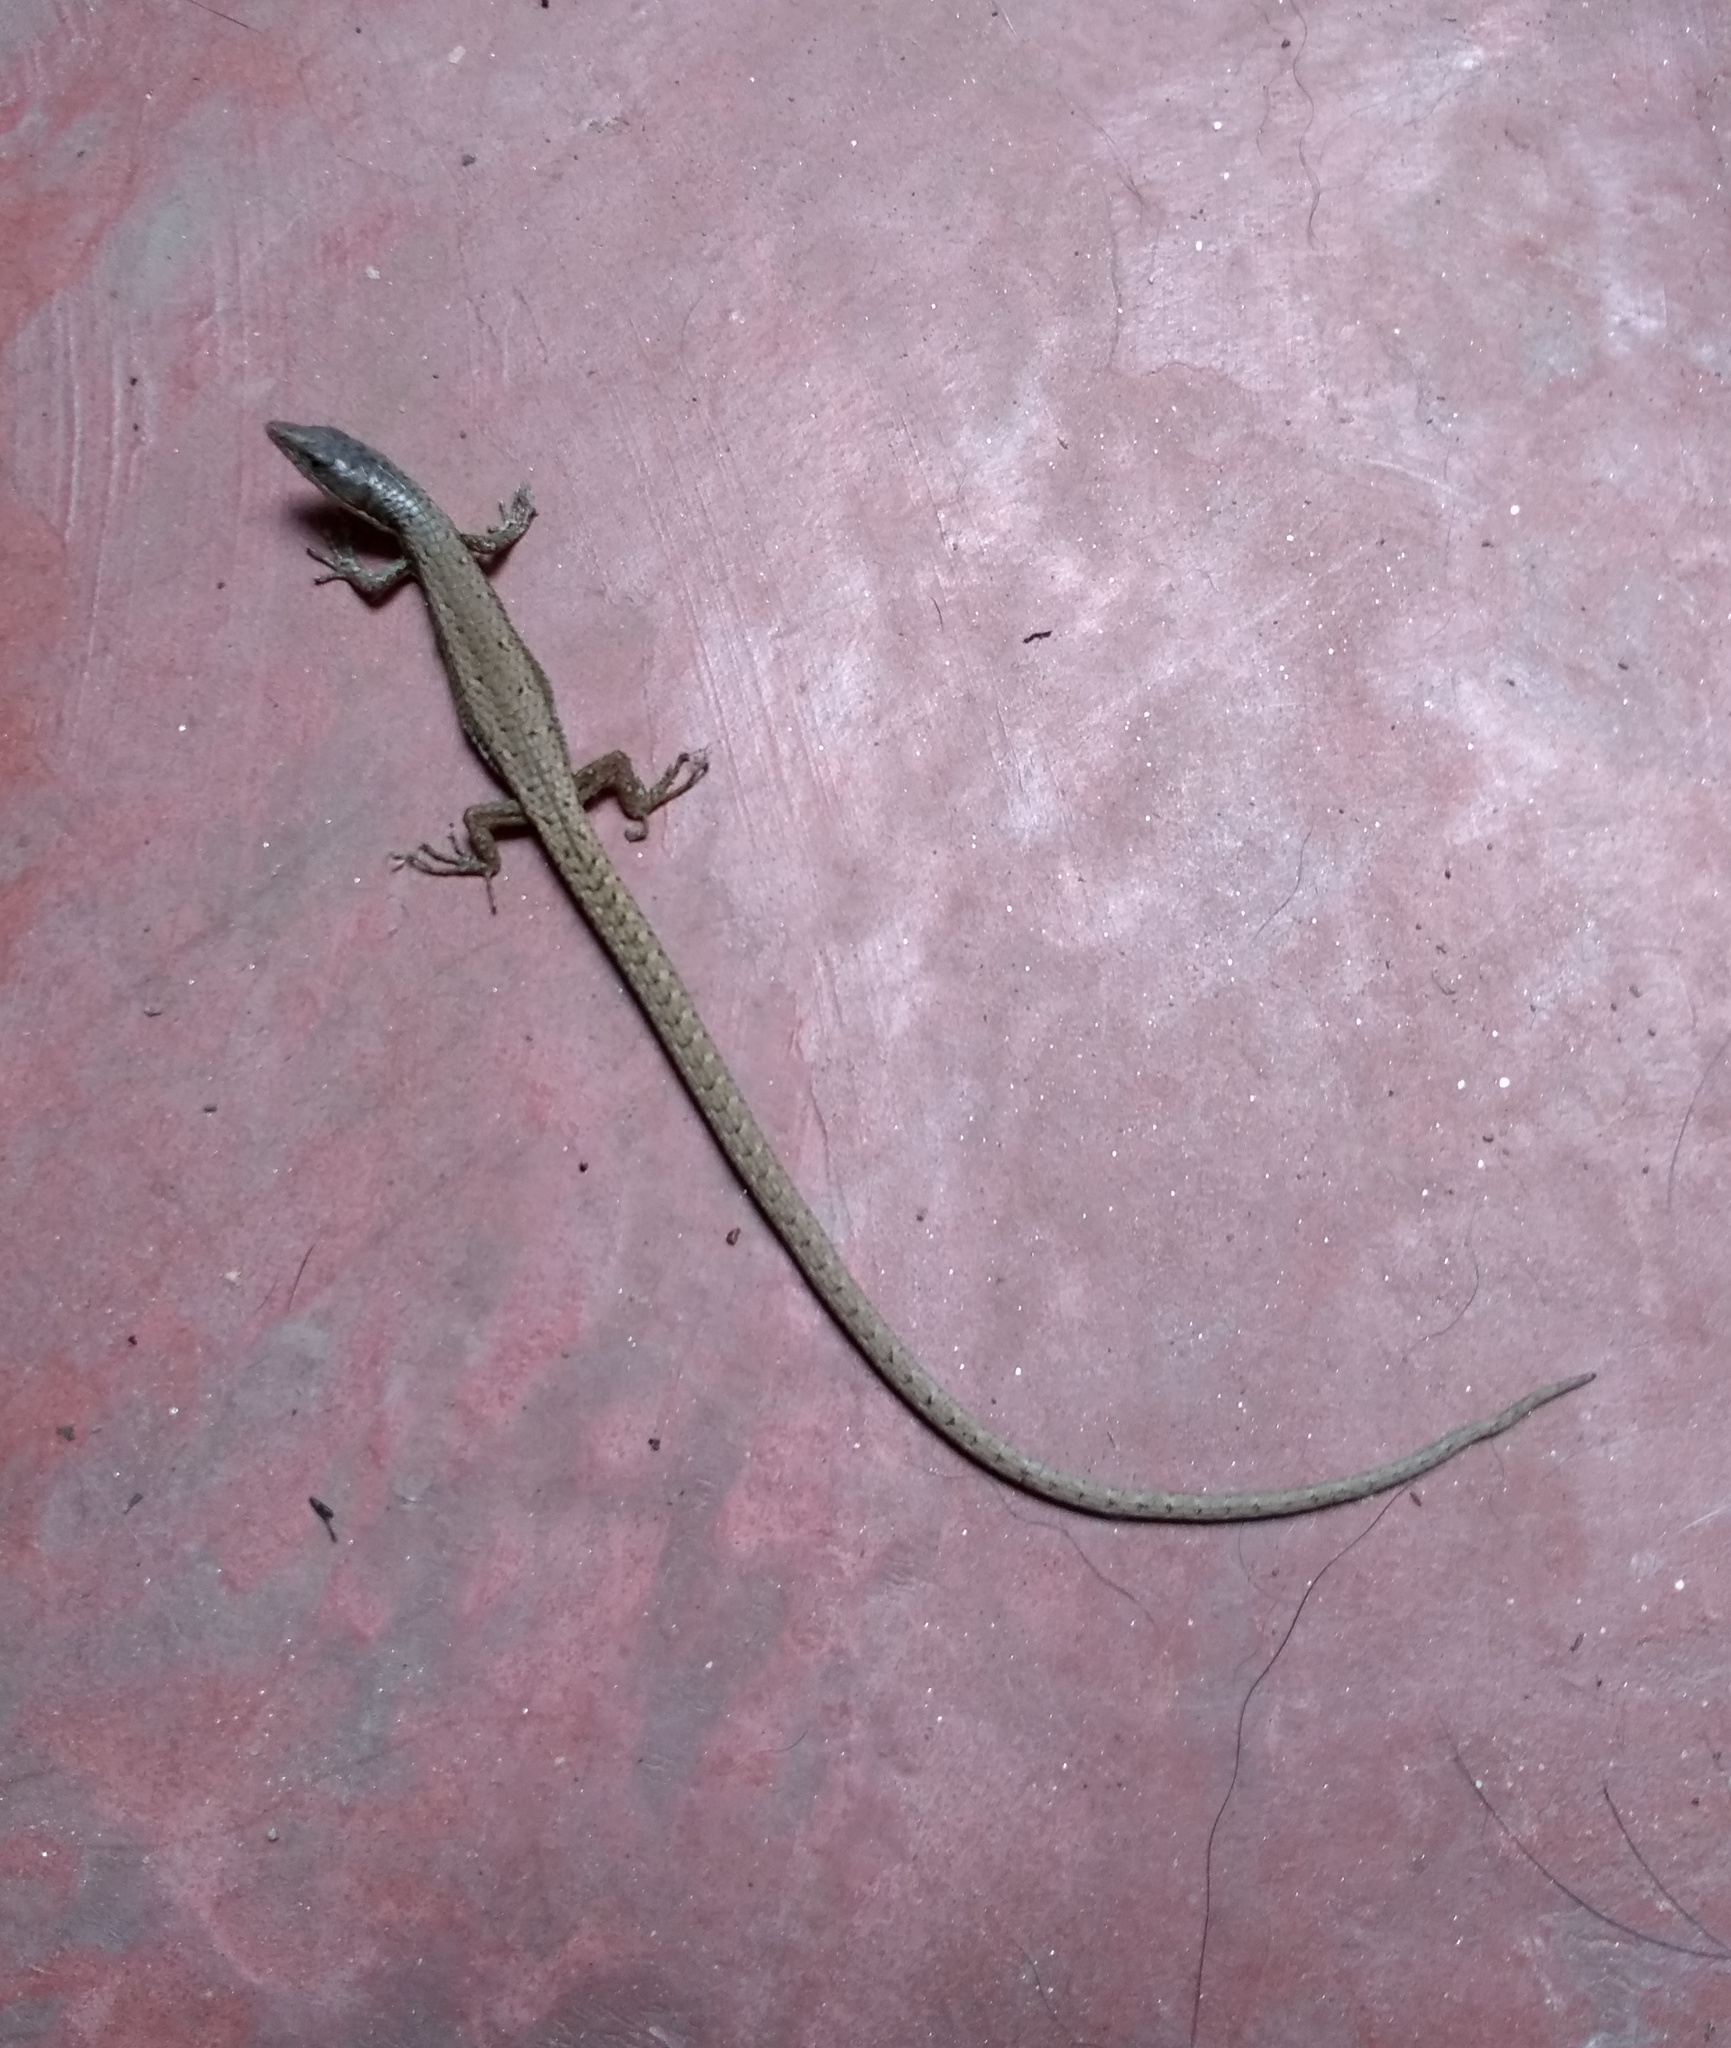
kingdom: Animalia
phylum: Chordata
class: Squamata
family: Gymnophthalmidae
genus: Placosoma
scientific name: Placosoma glabellum
